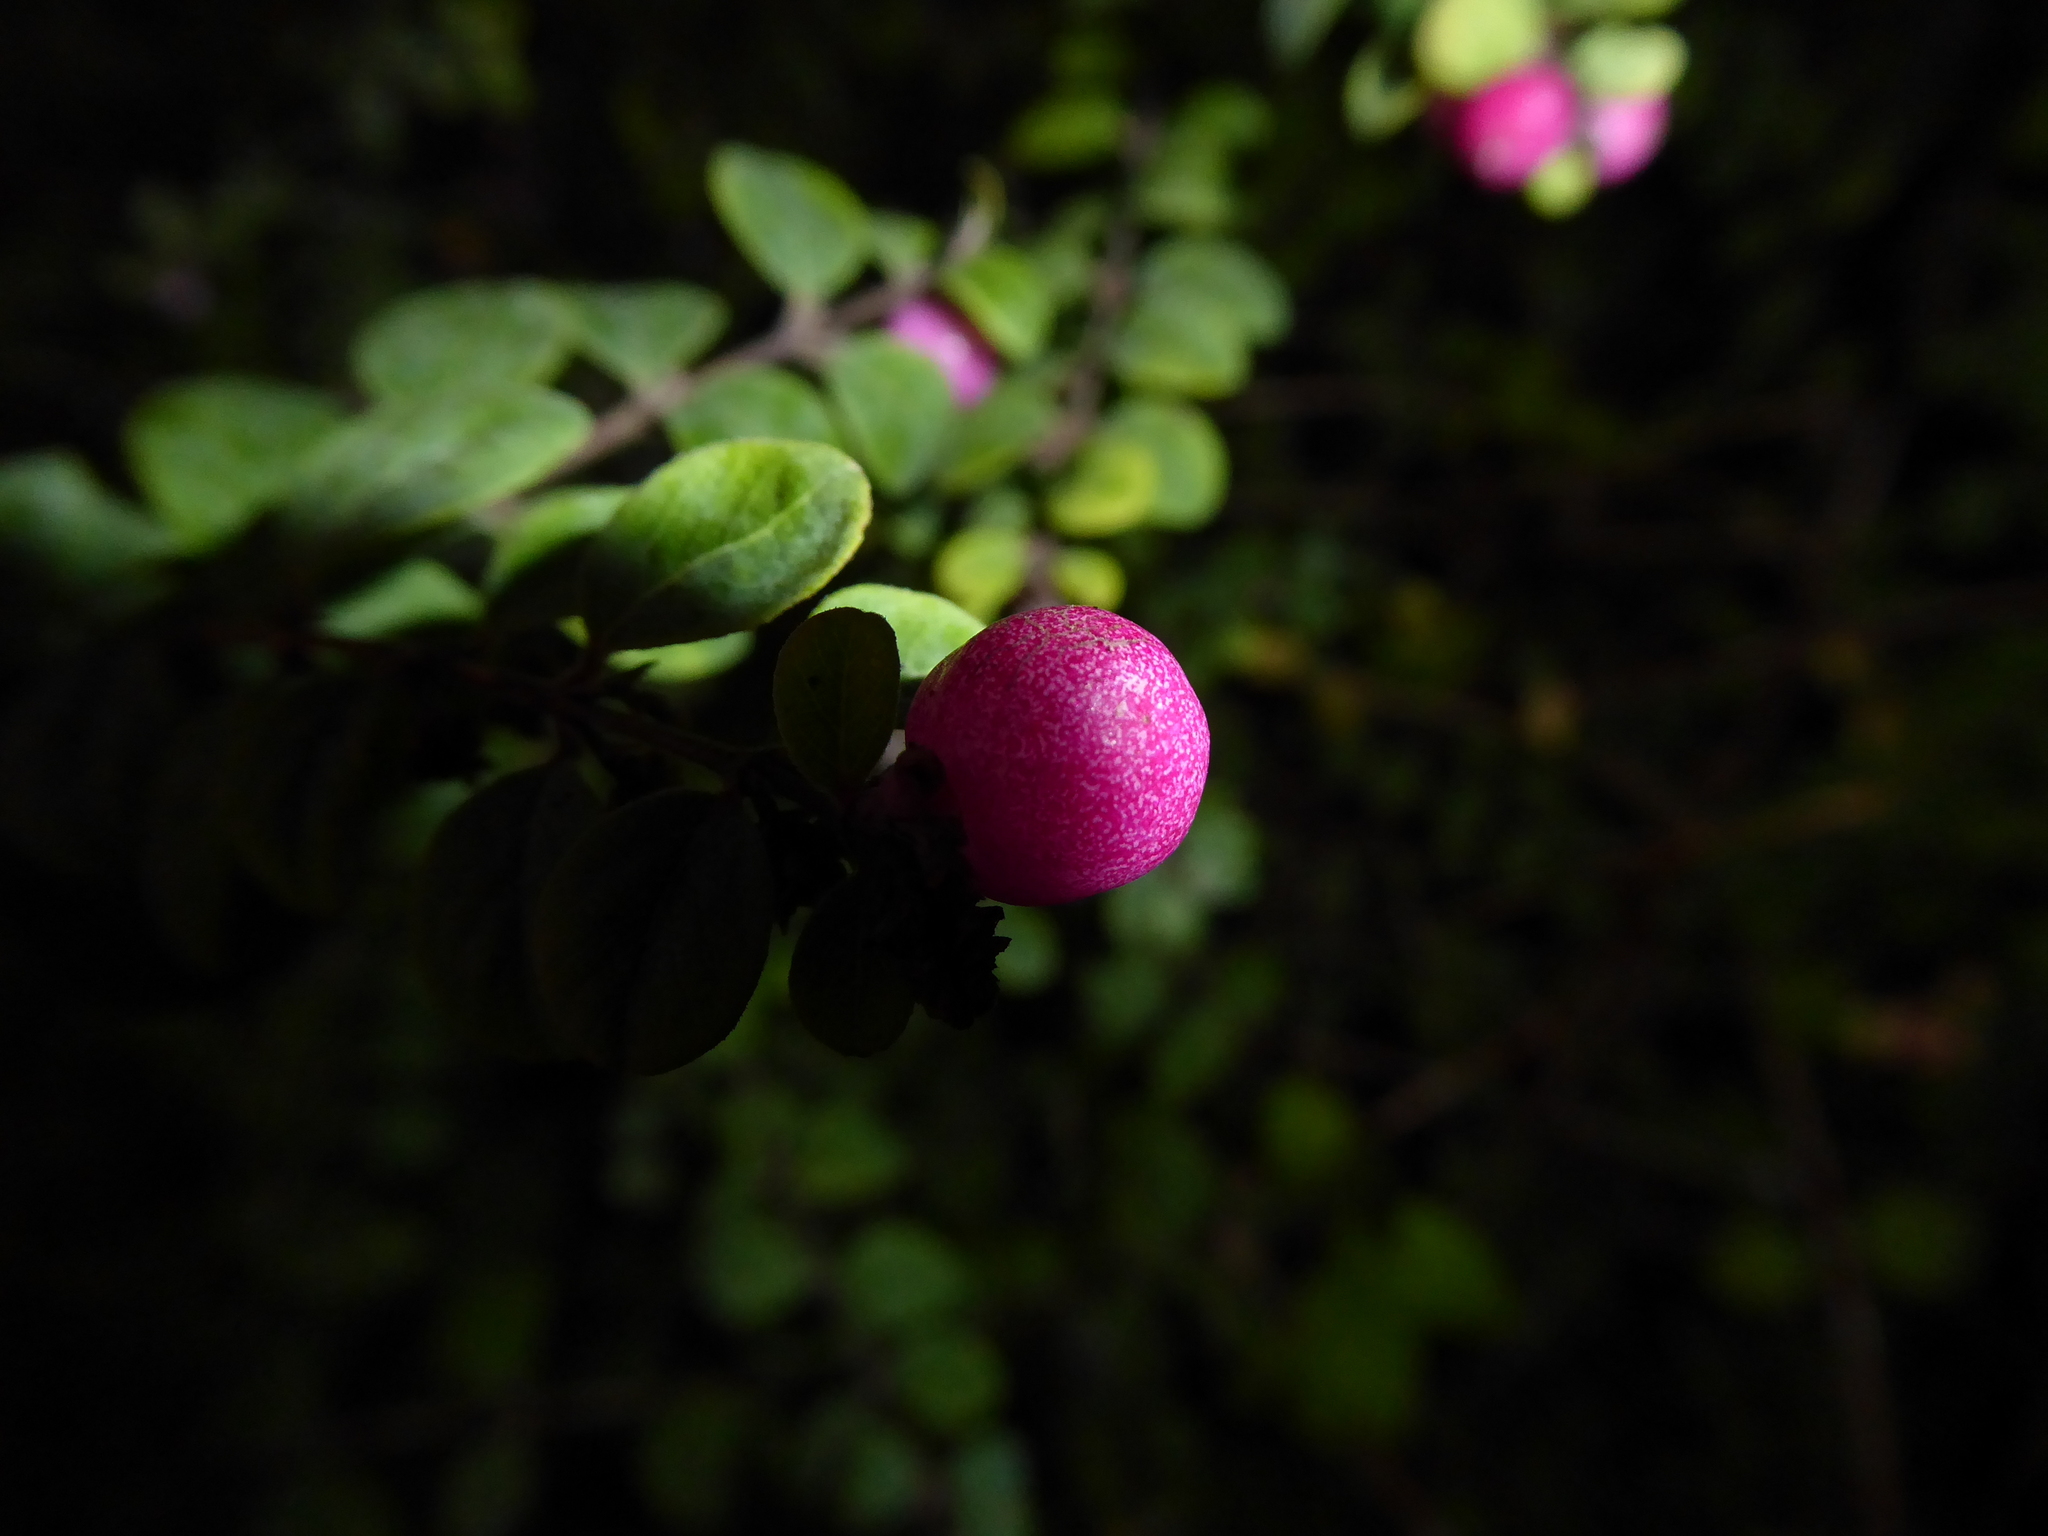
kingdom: Plantae
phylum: Tracheophyta
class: Magnoliopsida
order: Dipsacales
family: Caprifoliaceae
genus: Symphoricarpos
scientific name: Symphoricarpos chenaultii
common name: Hybrid coralberry
